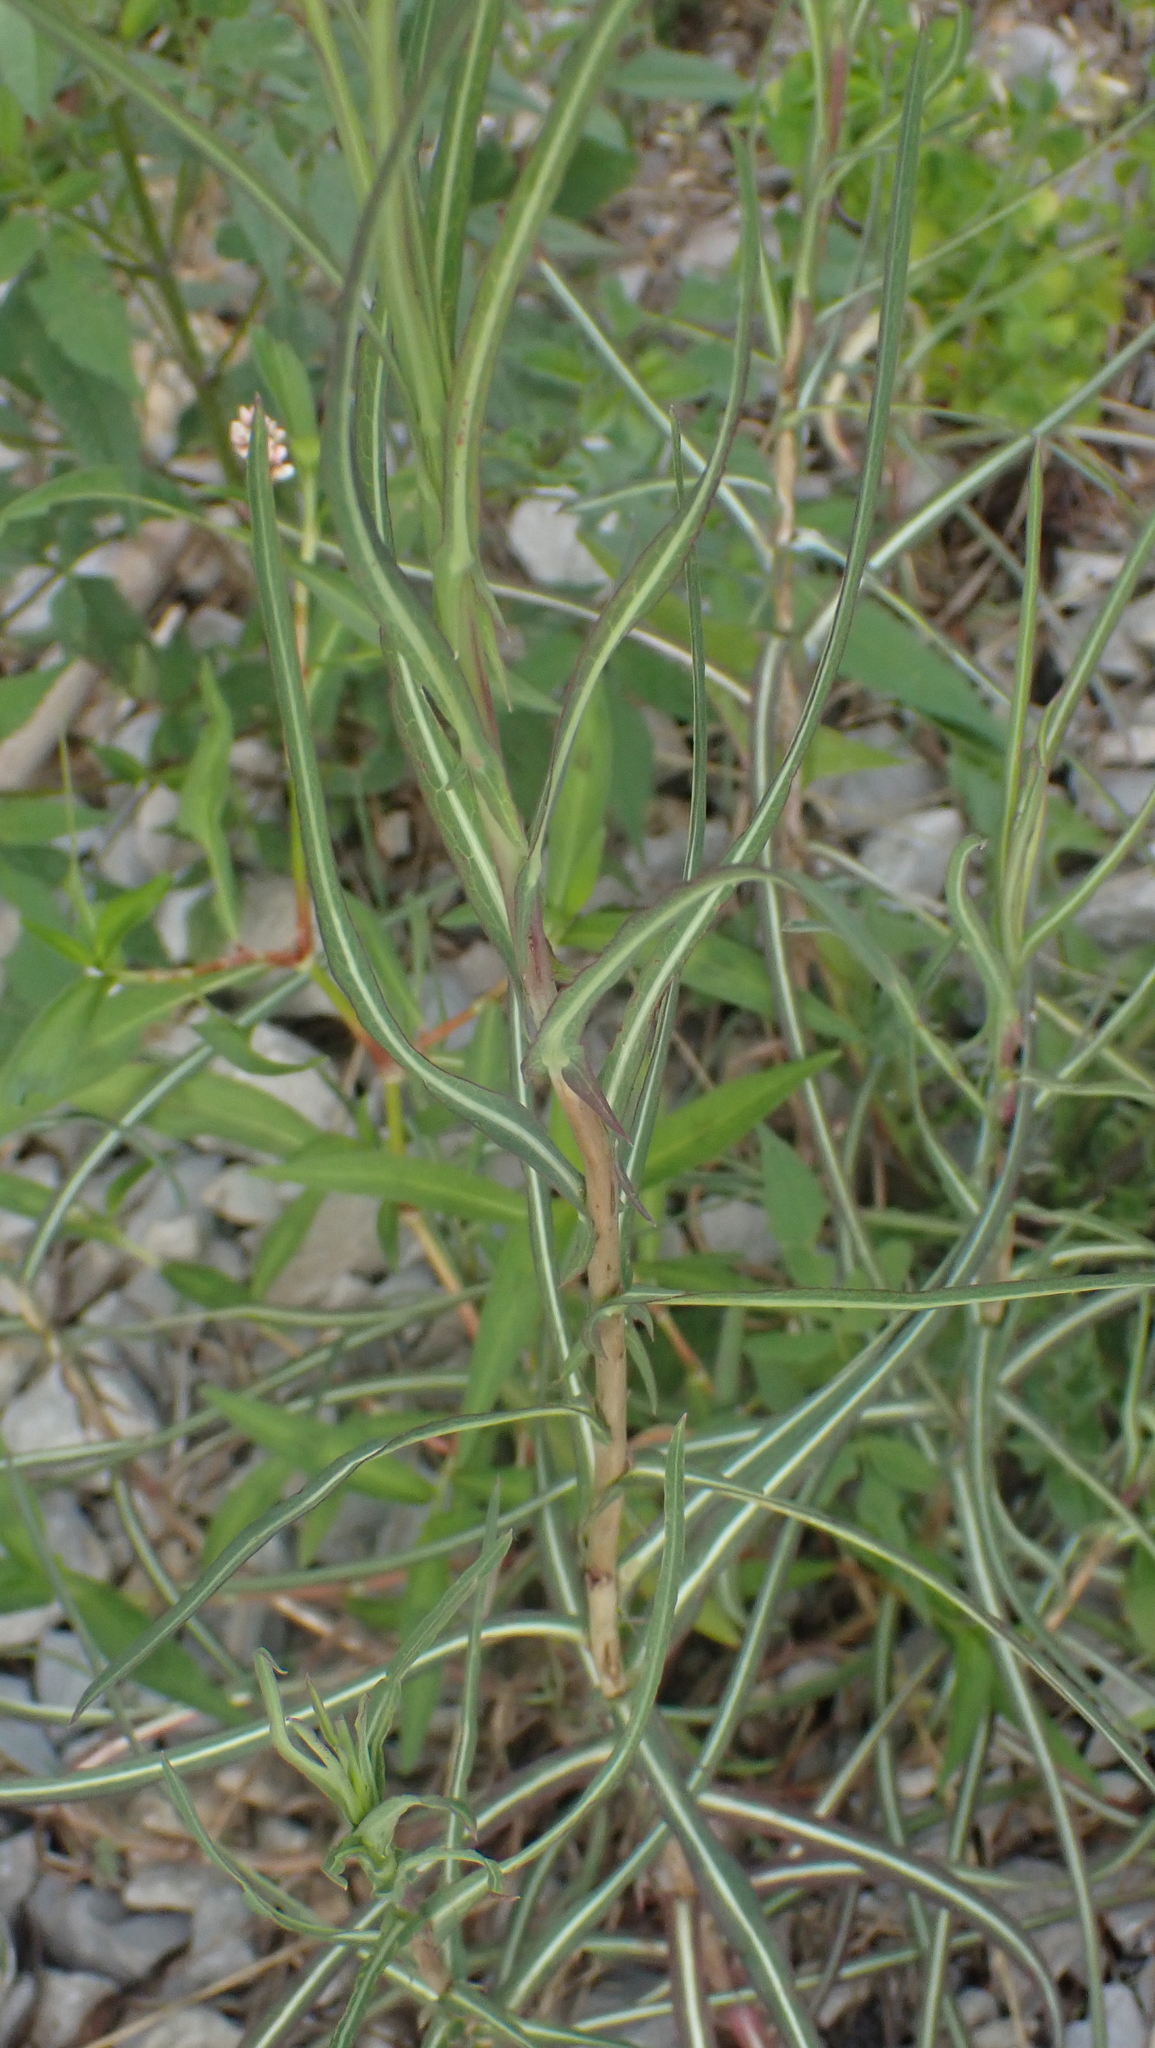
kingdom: Plantae
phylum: Tracheophyta
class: Magnoliopsida
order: Asterales
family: Asteraceae
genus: Lactuca
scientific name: Lactuca saligna
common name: Wild lettuce
